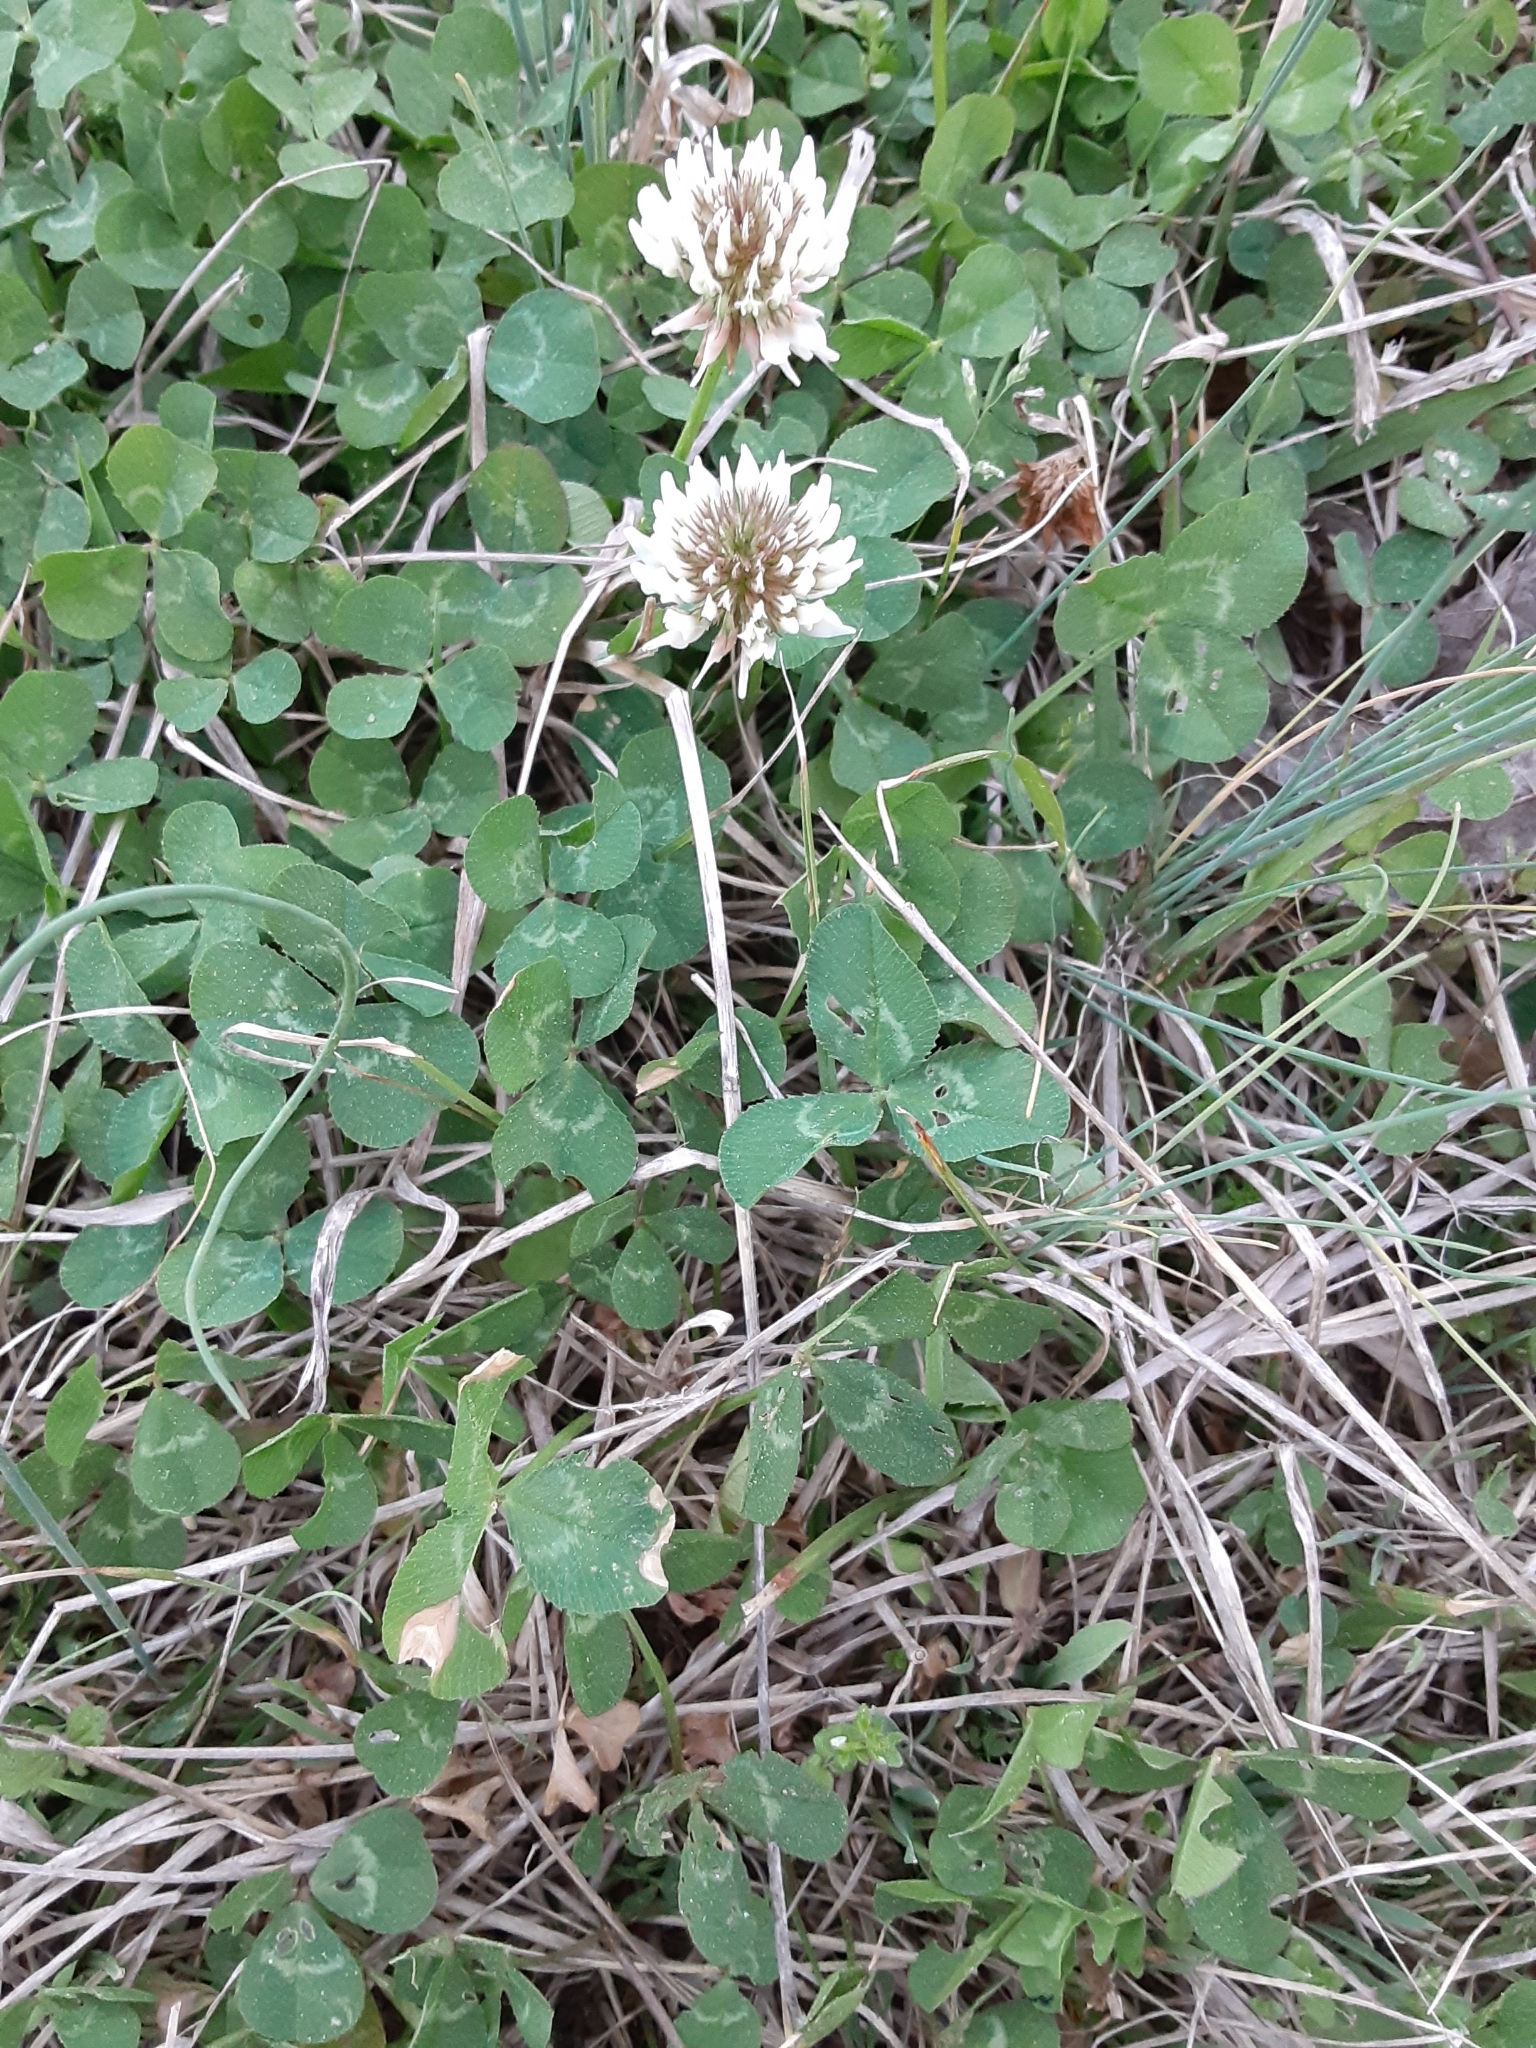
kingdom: Plantae
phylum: Tracheophyta
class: Magnoliopsida
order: Fabales
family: Fabaceae
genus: Trifolium
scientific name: Trifolium repens
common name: White clover
